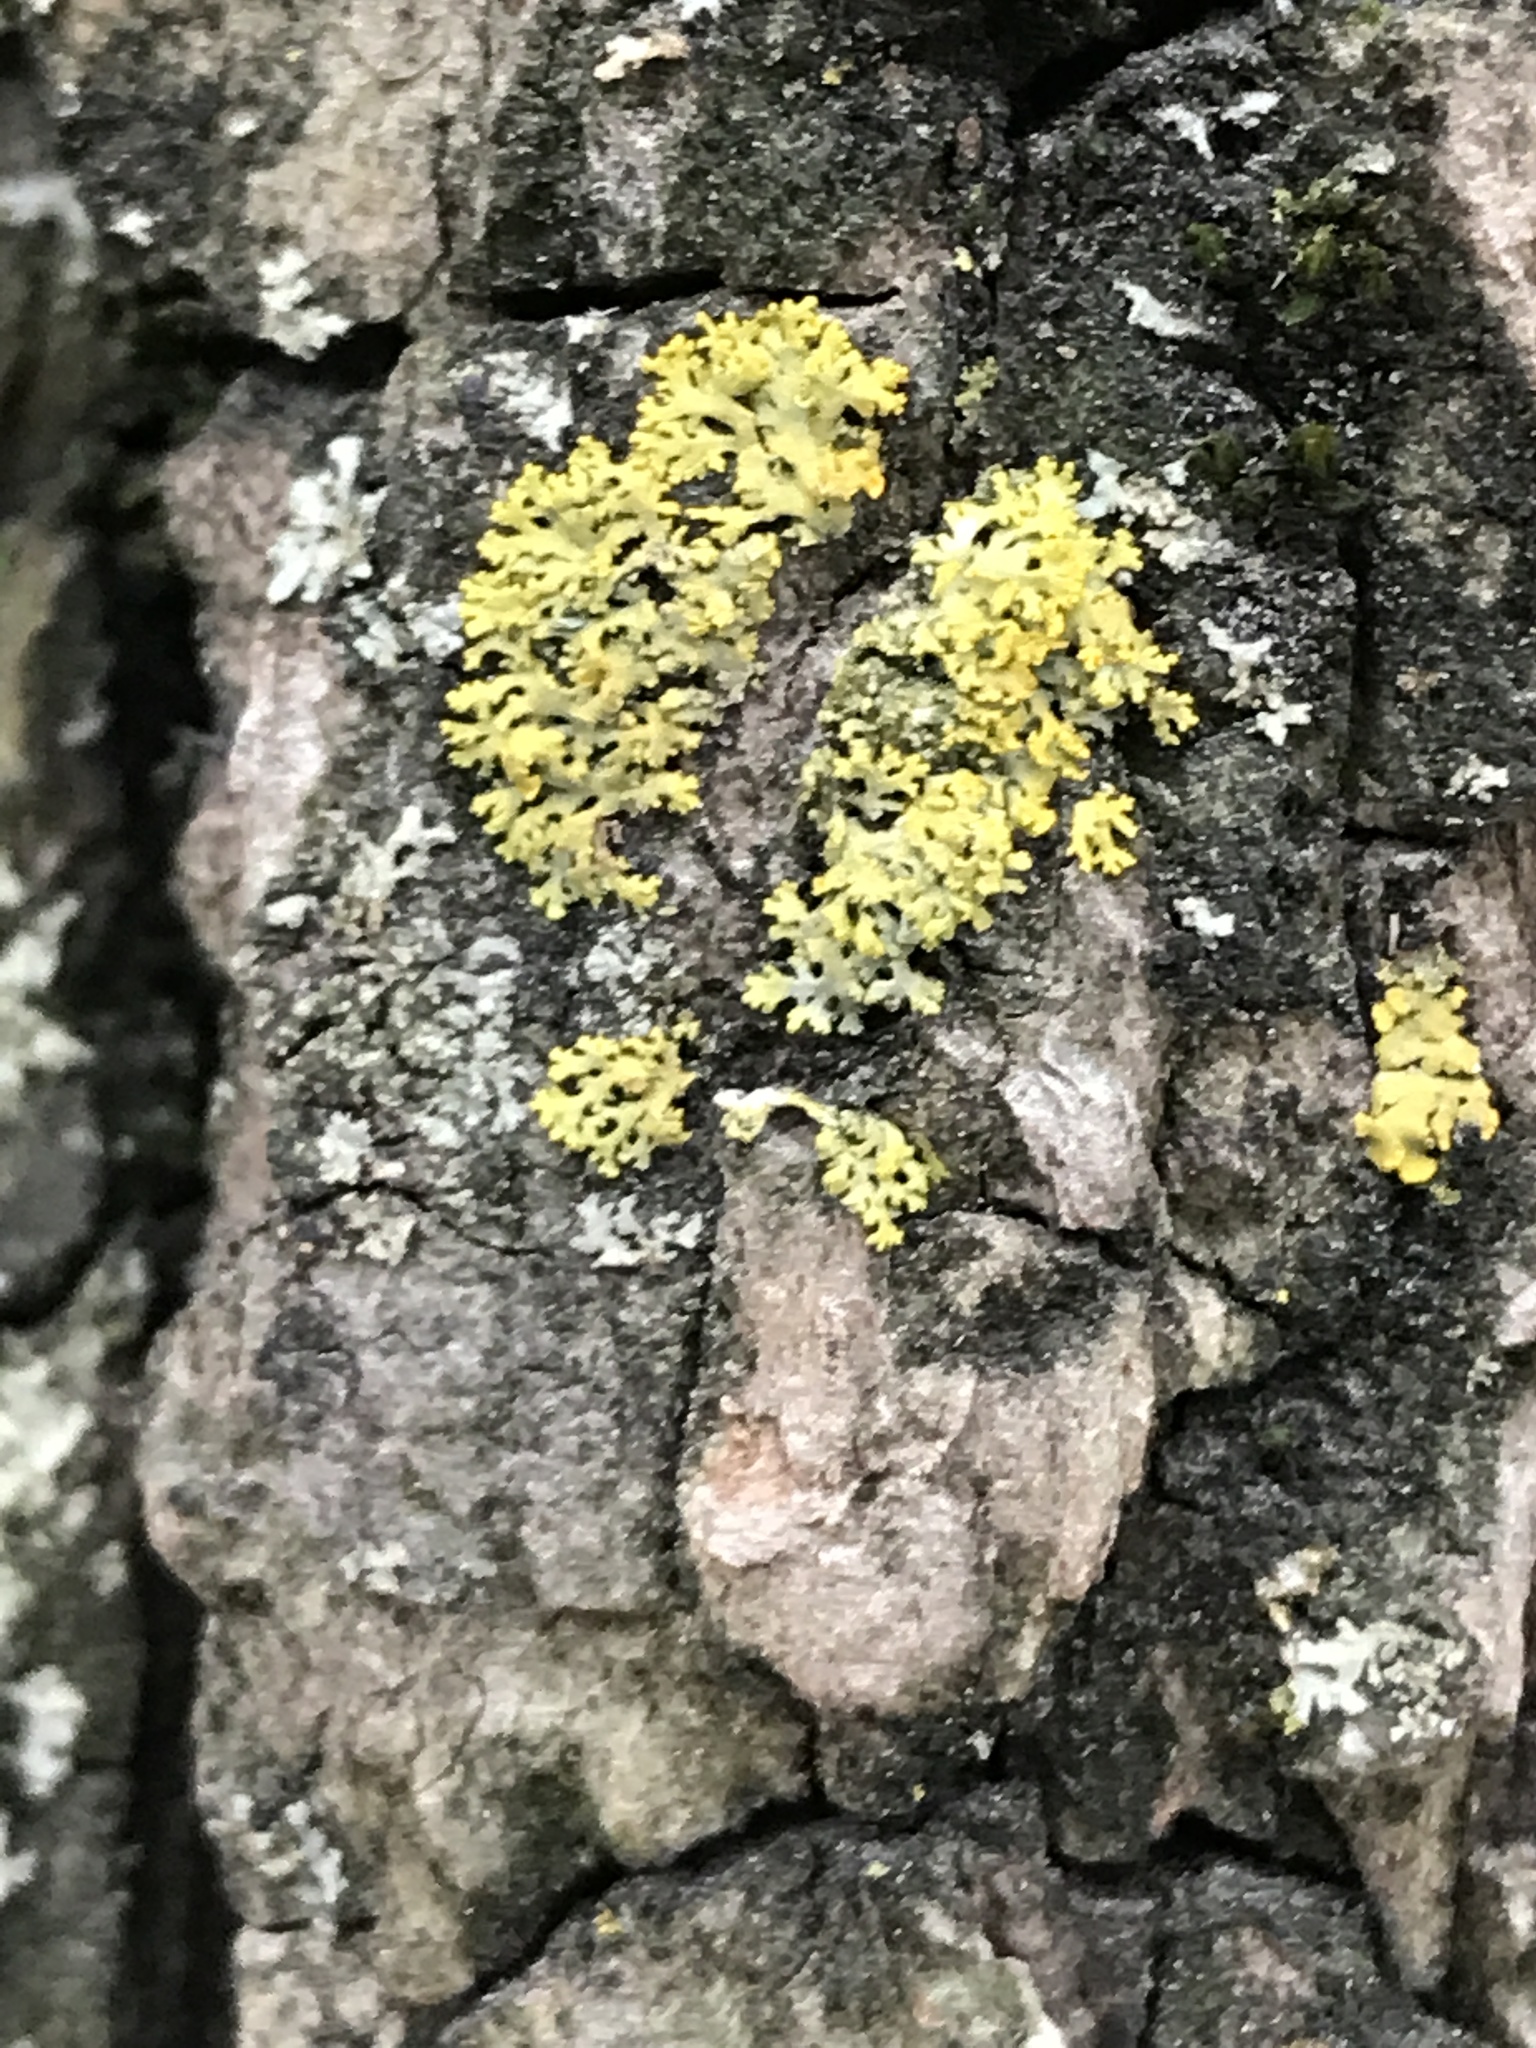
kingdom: Fungi
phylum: Ascomycota
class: Candelariomycetes
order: Candelariales
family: Candelariaceae
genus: Candelaria
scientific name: Candelaria concolor
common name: Candleflame lichen
